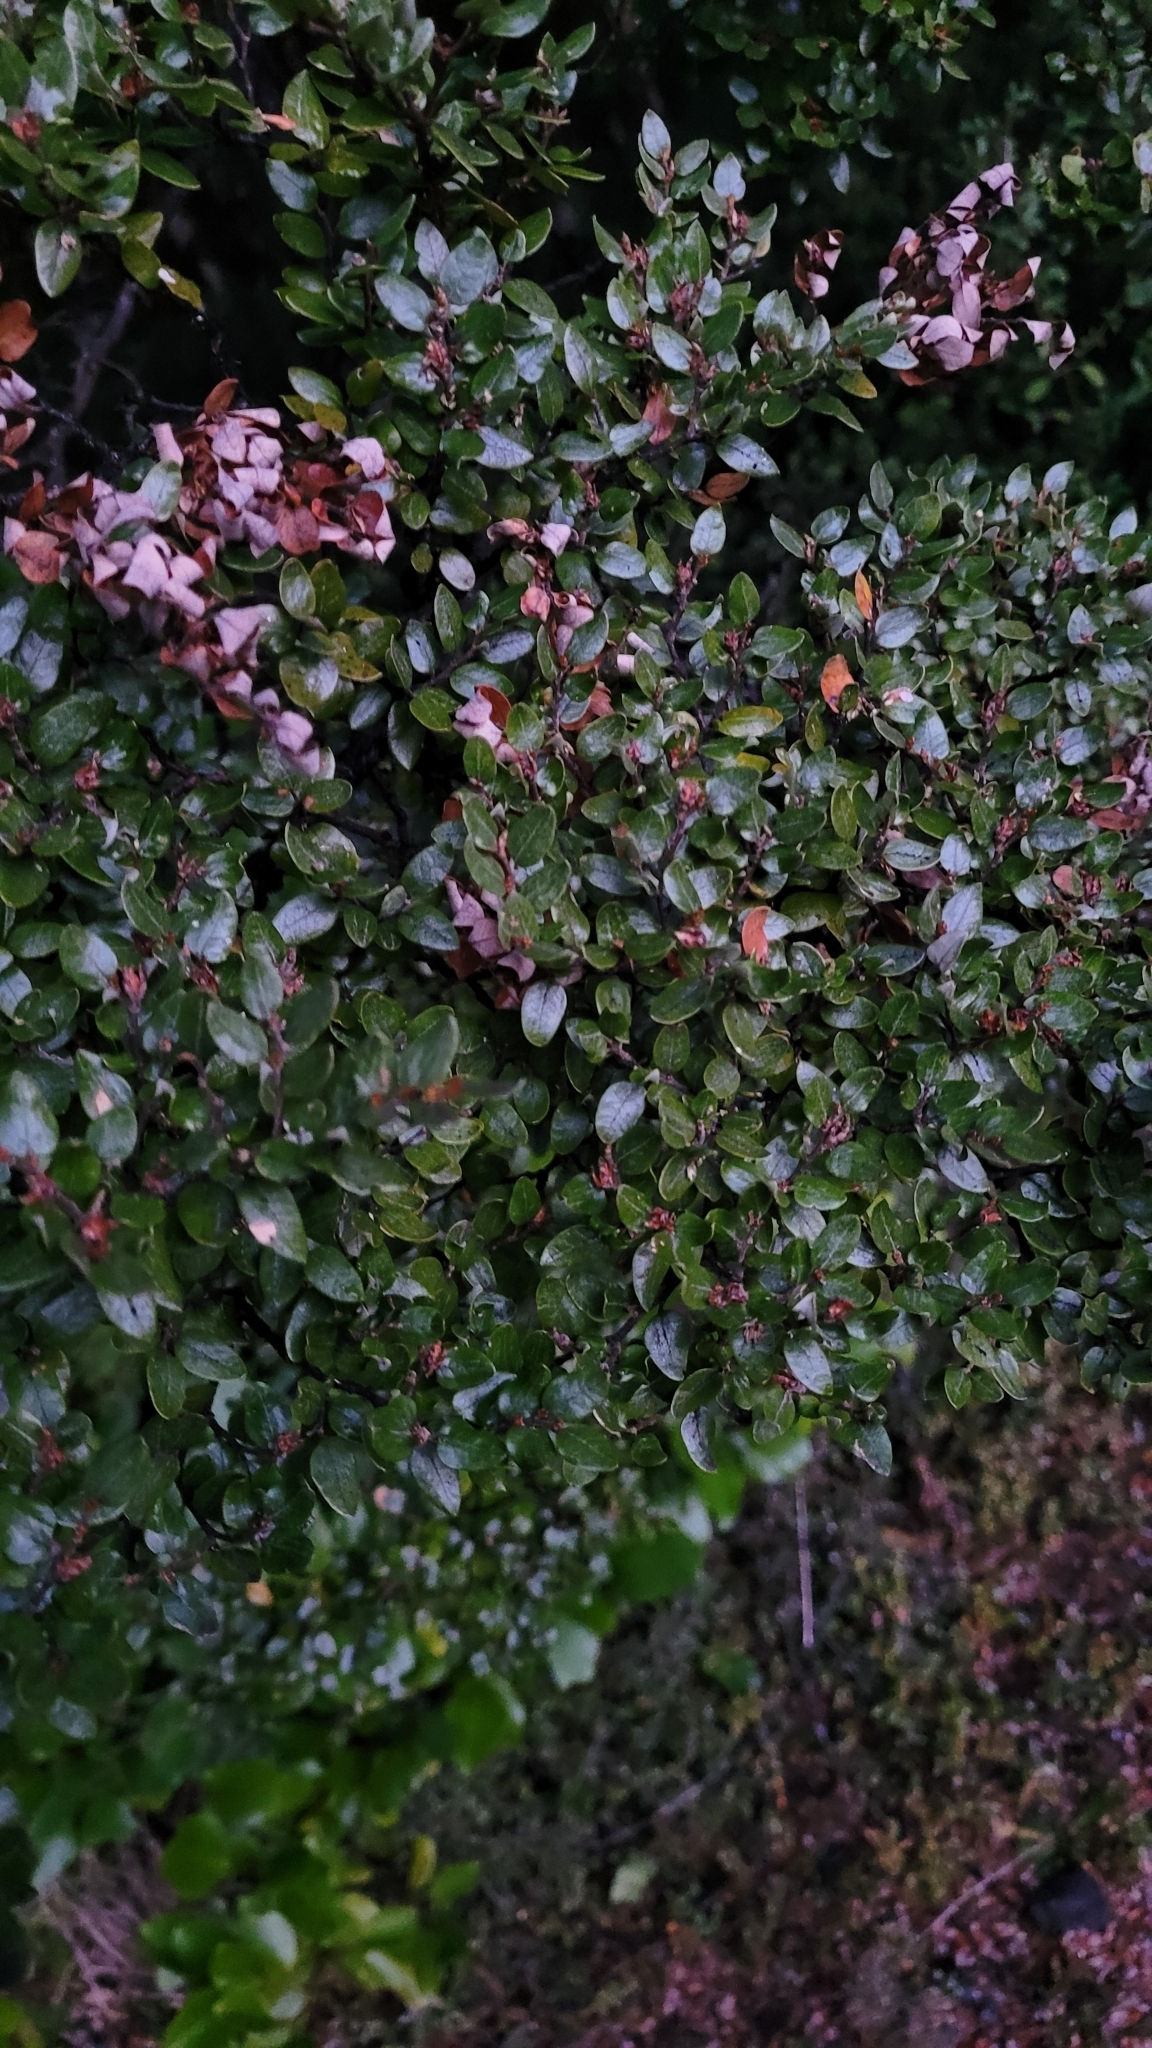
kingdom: Plantae
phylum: Tracheophyta
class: Magnoliopsida
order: Fagales
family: Nothofagaceae
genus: Nothofagus
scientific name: Nothofagus cliffortioides
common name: Mountain beech
